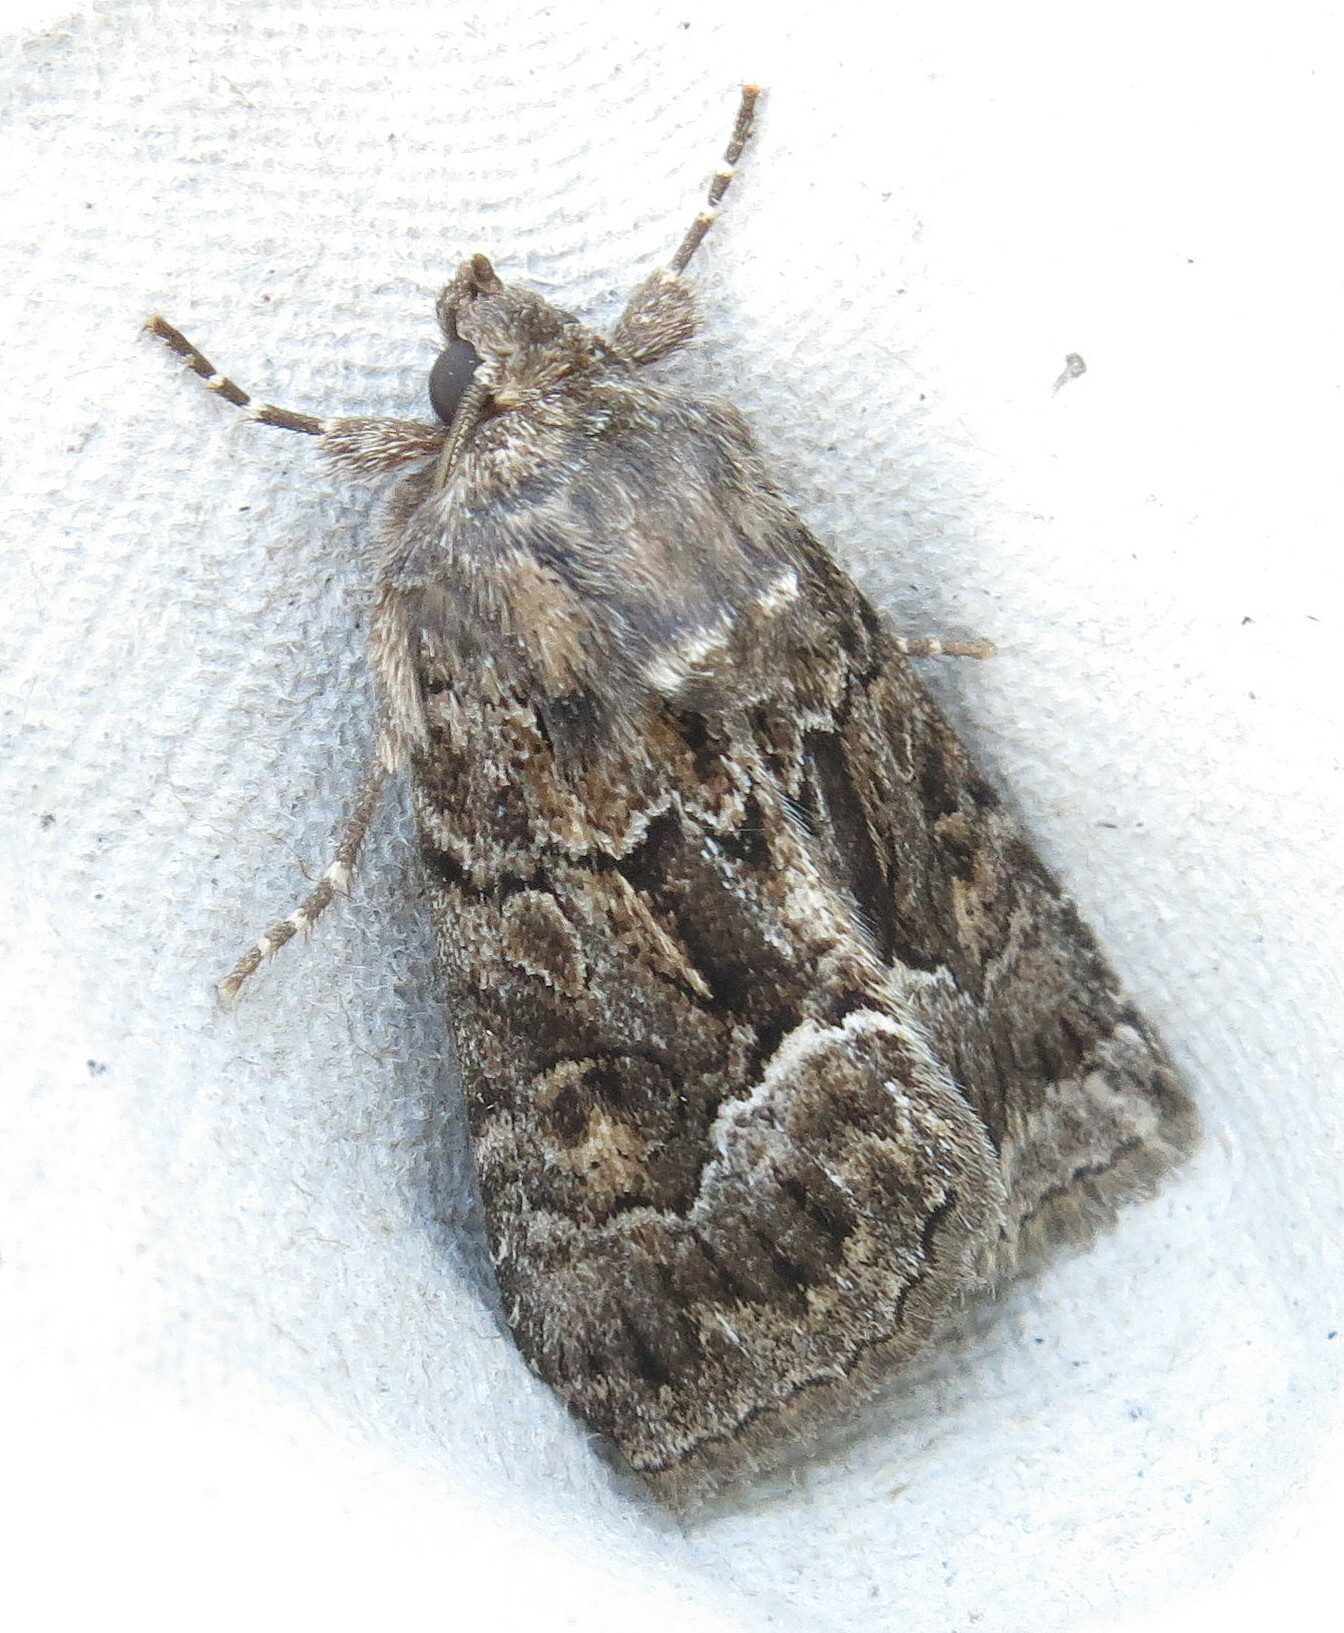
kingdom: Animalia
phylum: Arthropoda
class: Insecta
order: Lepidoptera
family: Noctuidae
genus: Thalpophila
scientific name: Thalpophila matura
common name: Straw underwing
